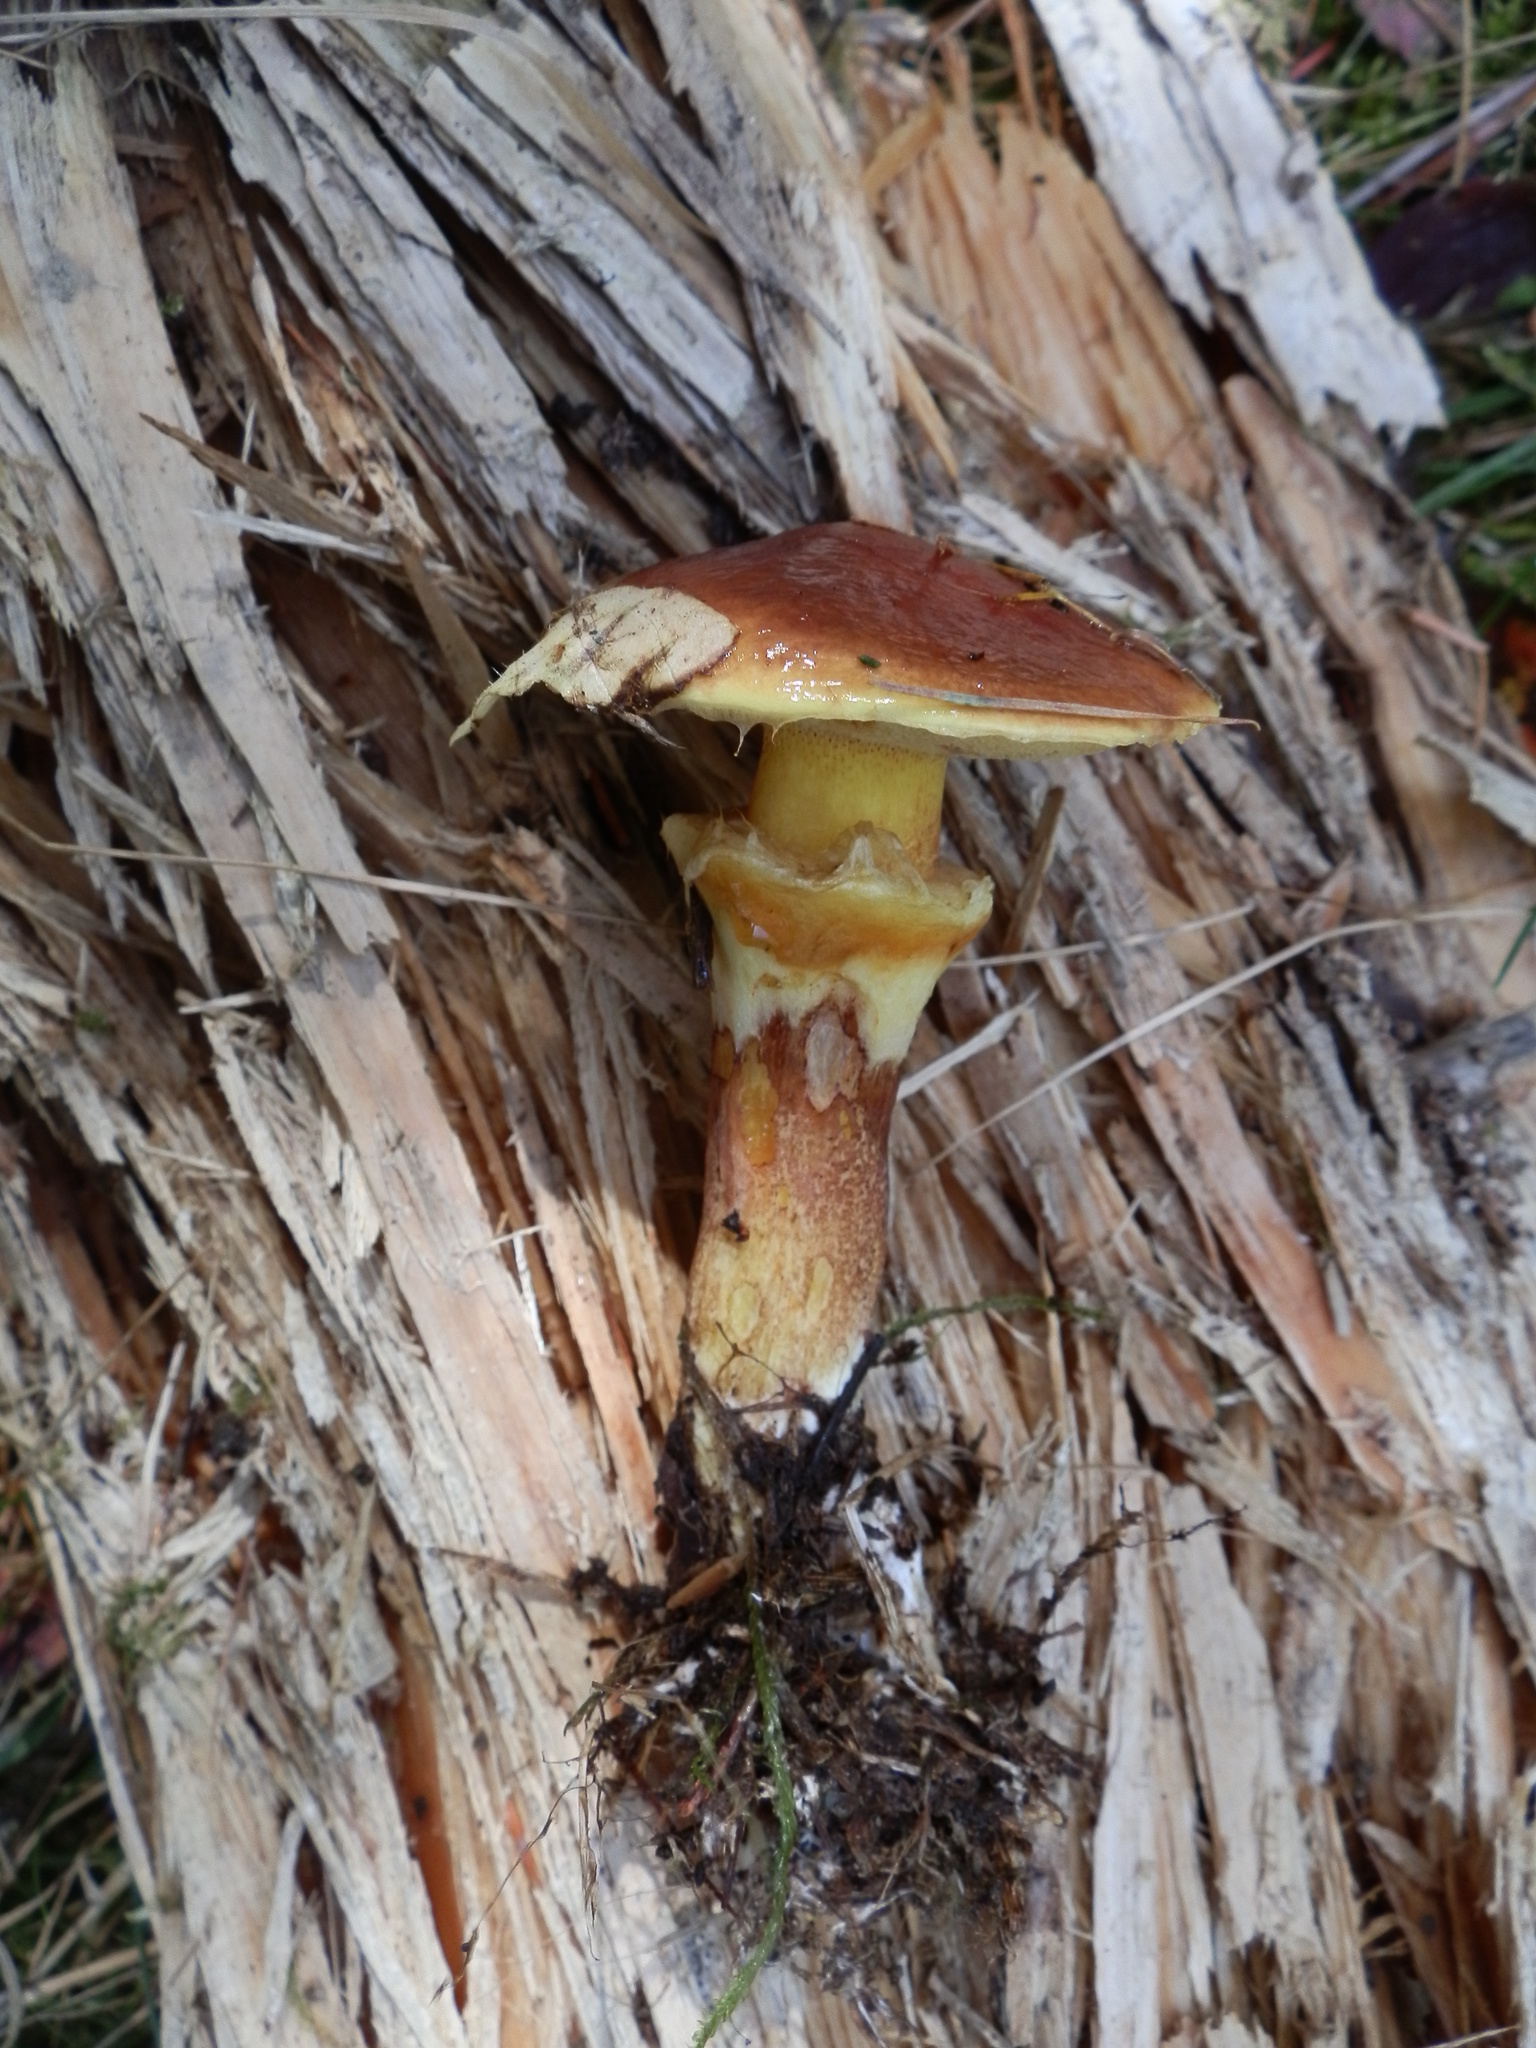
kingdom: Fungi
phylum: Basidiomycota
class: Agaricomycetes
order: Boletales
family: Suillaceae
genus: Suillus
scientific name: Suillus grevillei
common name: Larch bolete
